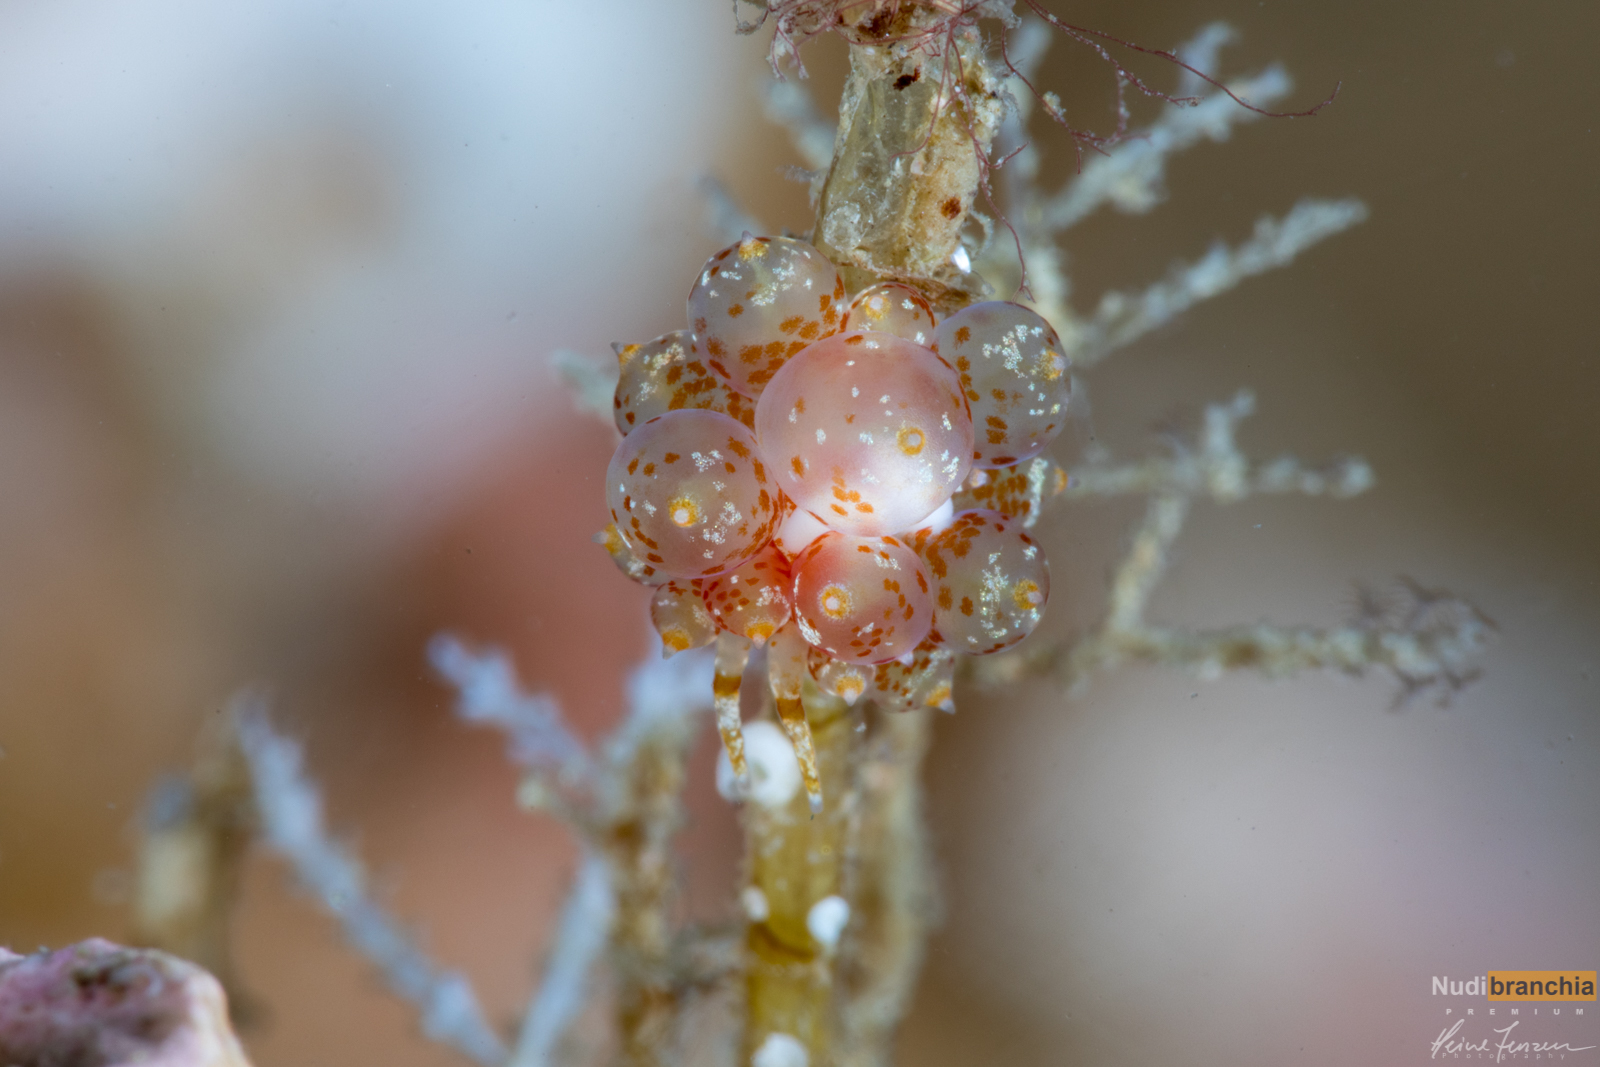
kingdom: Animalia
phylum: Mollusca
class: Gastropoda
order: Nudibranchia
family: Eubranchidae
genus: Amphorina
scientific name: Amphorina pallida
